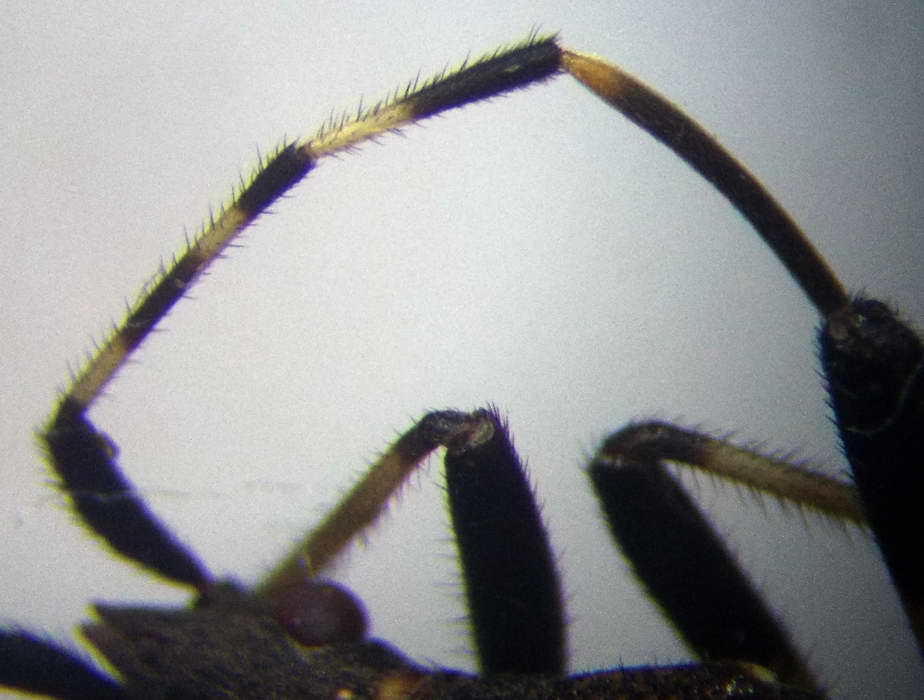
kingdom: Animalia
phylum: Arthropoda
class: Insecta
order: Hemiptera
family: Stenocephalidae
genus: Dicranocephalus
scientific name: Dicranocephalus agilis
